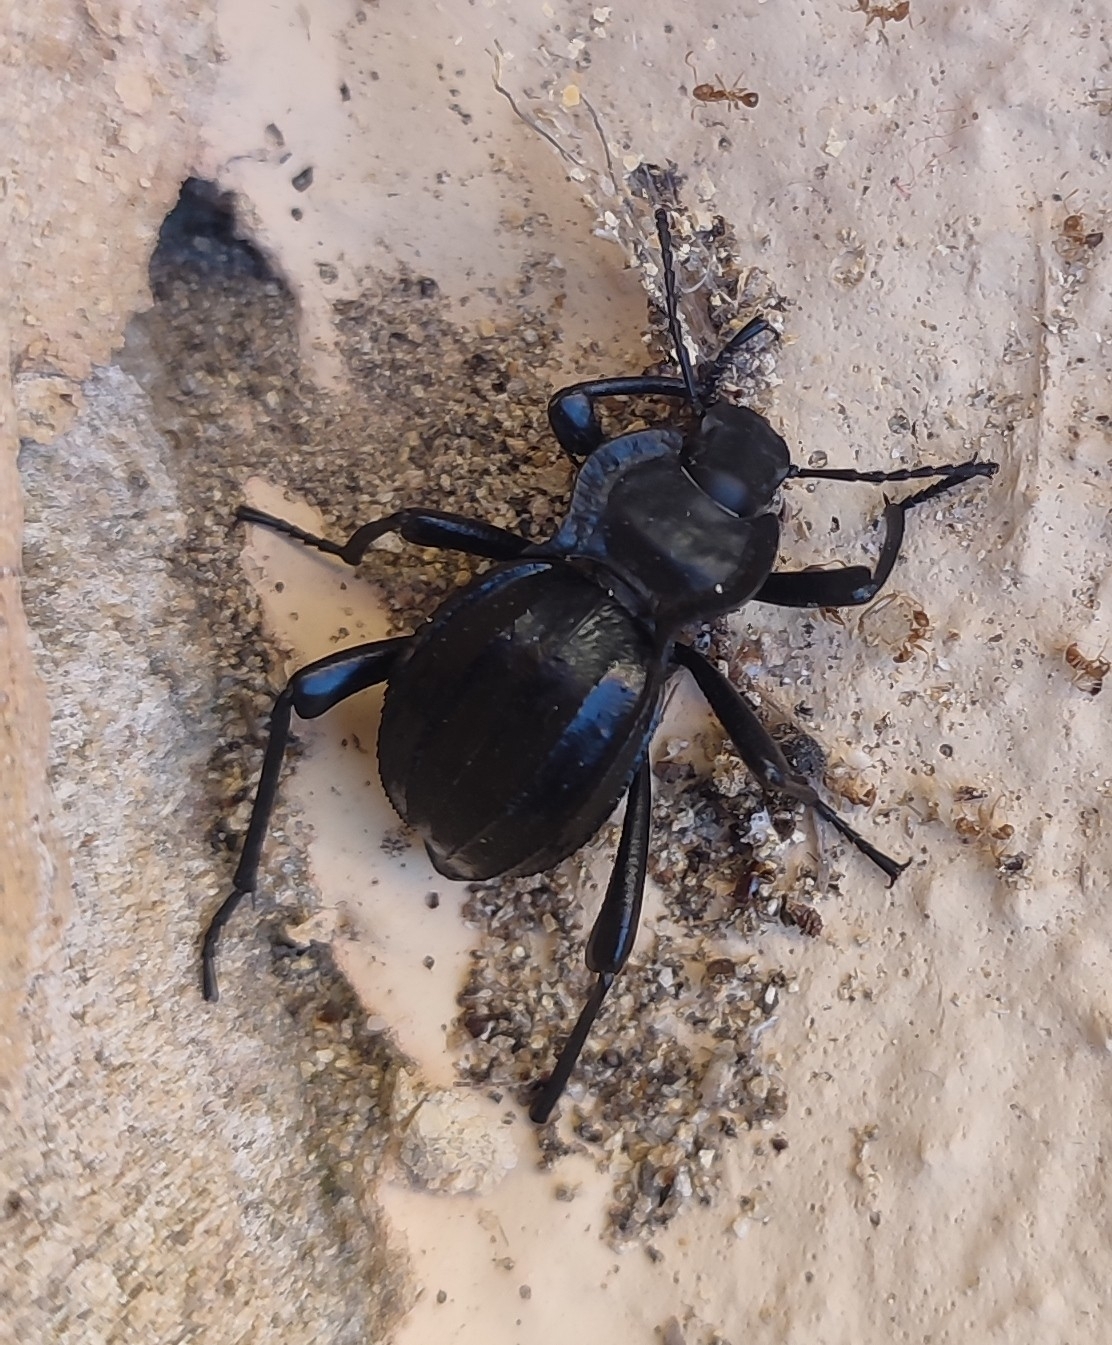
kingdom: Animalia
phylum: Arthropoda
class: Insecta
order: Coleoptera
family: Tenebrionidae
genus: Akis
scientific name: Akis granulifera
